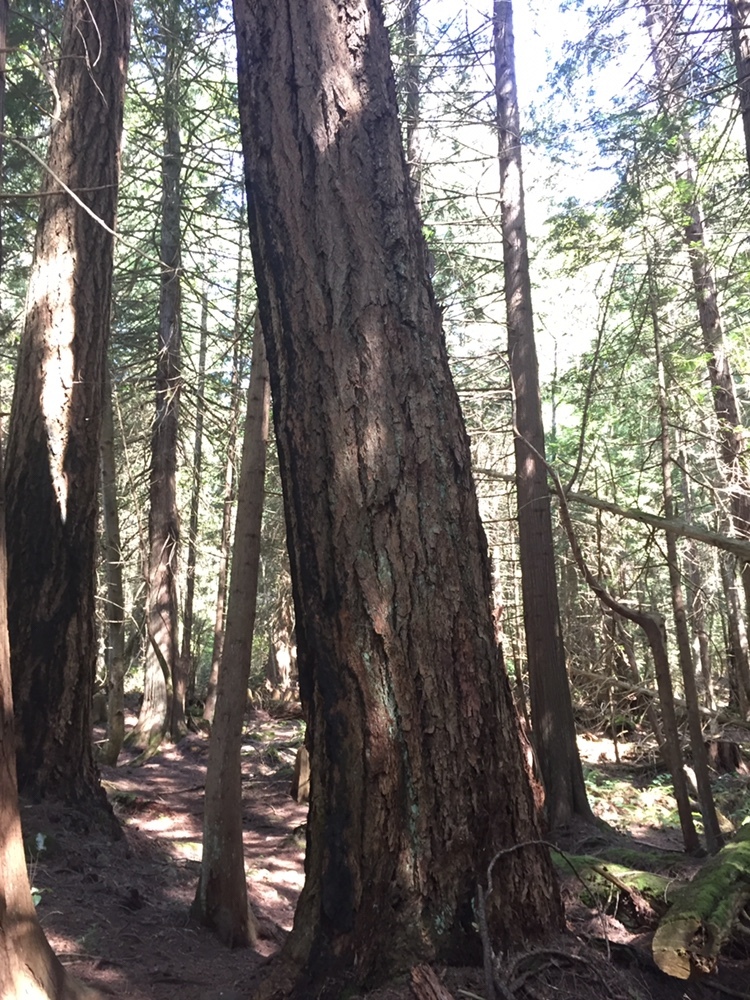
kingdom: Plantae
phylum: Tracheophyta
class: Pinopsida
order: Pinales
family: Pinaceae
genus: Pseudotsuga
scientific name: Pseudotsuga menziesii
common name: Douglas fir
